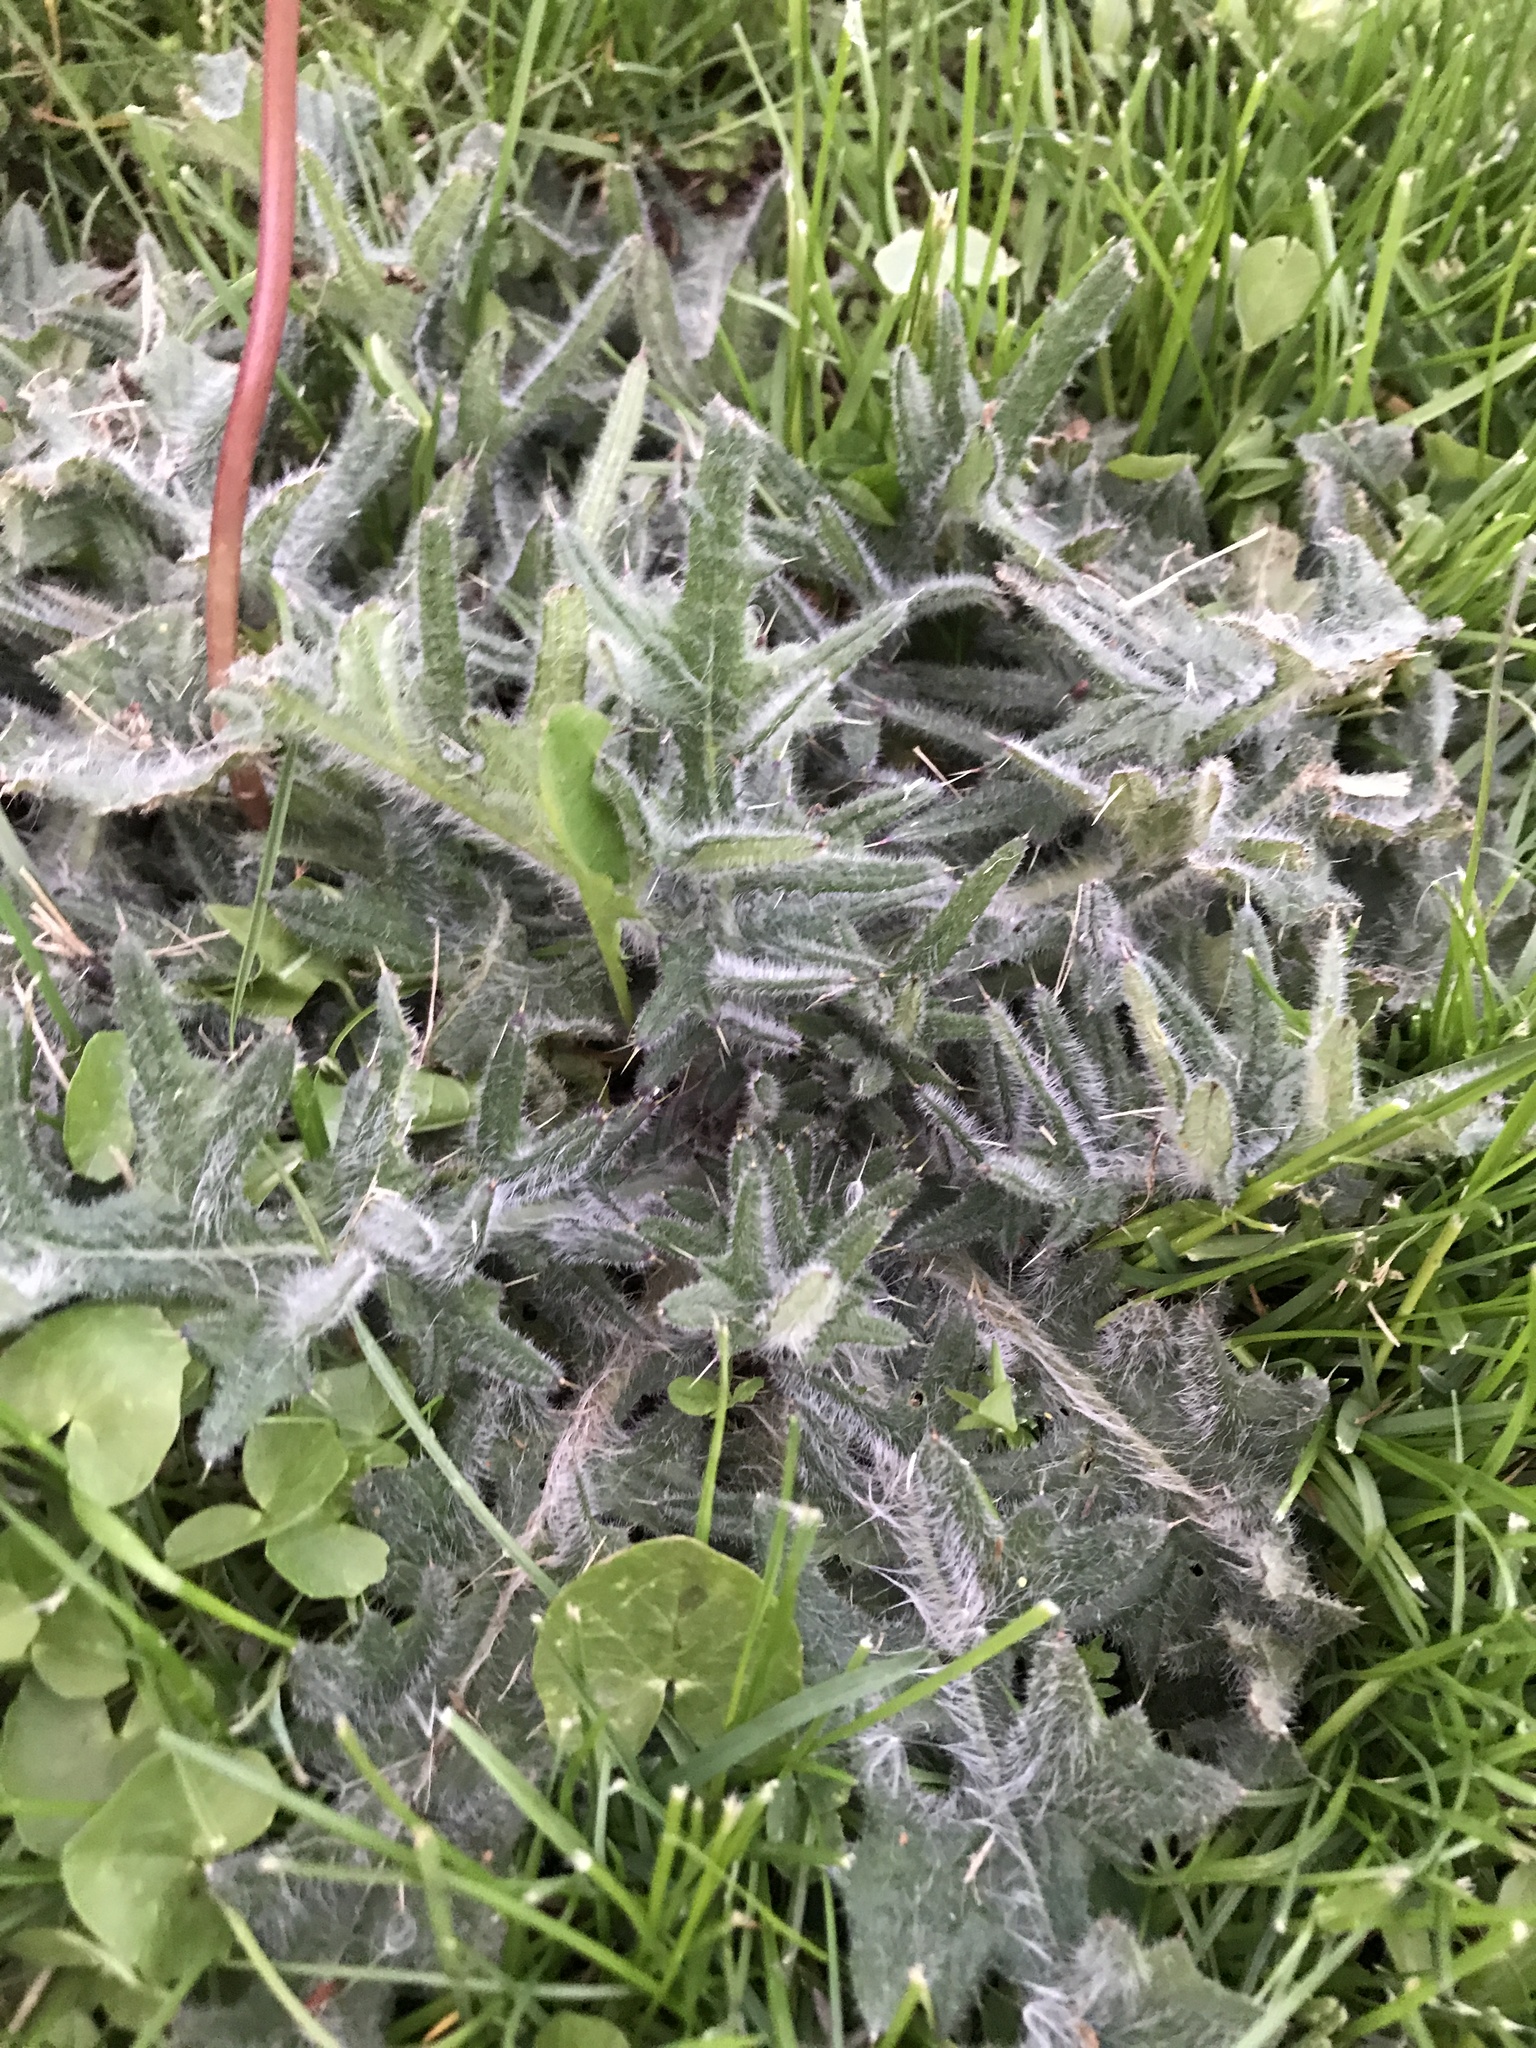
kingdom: Plantae
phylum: Tracheophyta
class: Magnoliopsida
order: Asterales
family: Asteraceae
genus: Cirsium
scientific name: Cirsium vulgare
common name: Bull thistle
